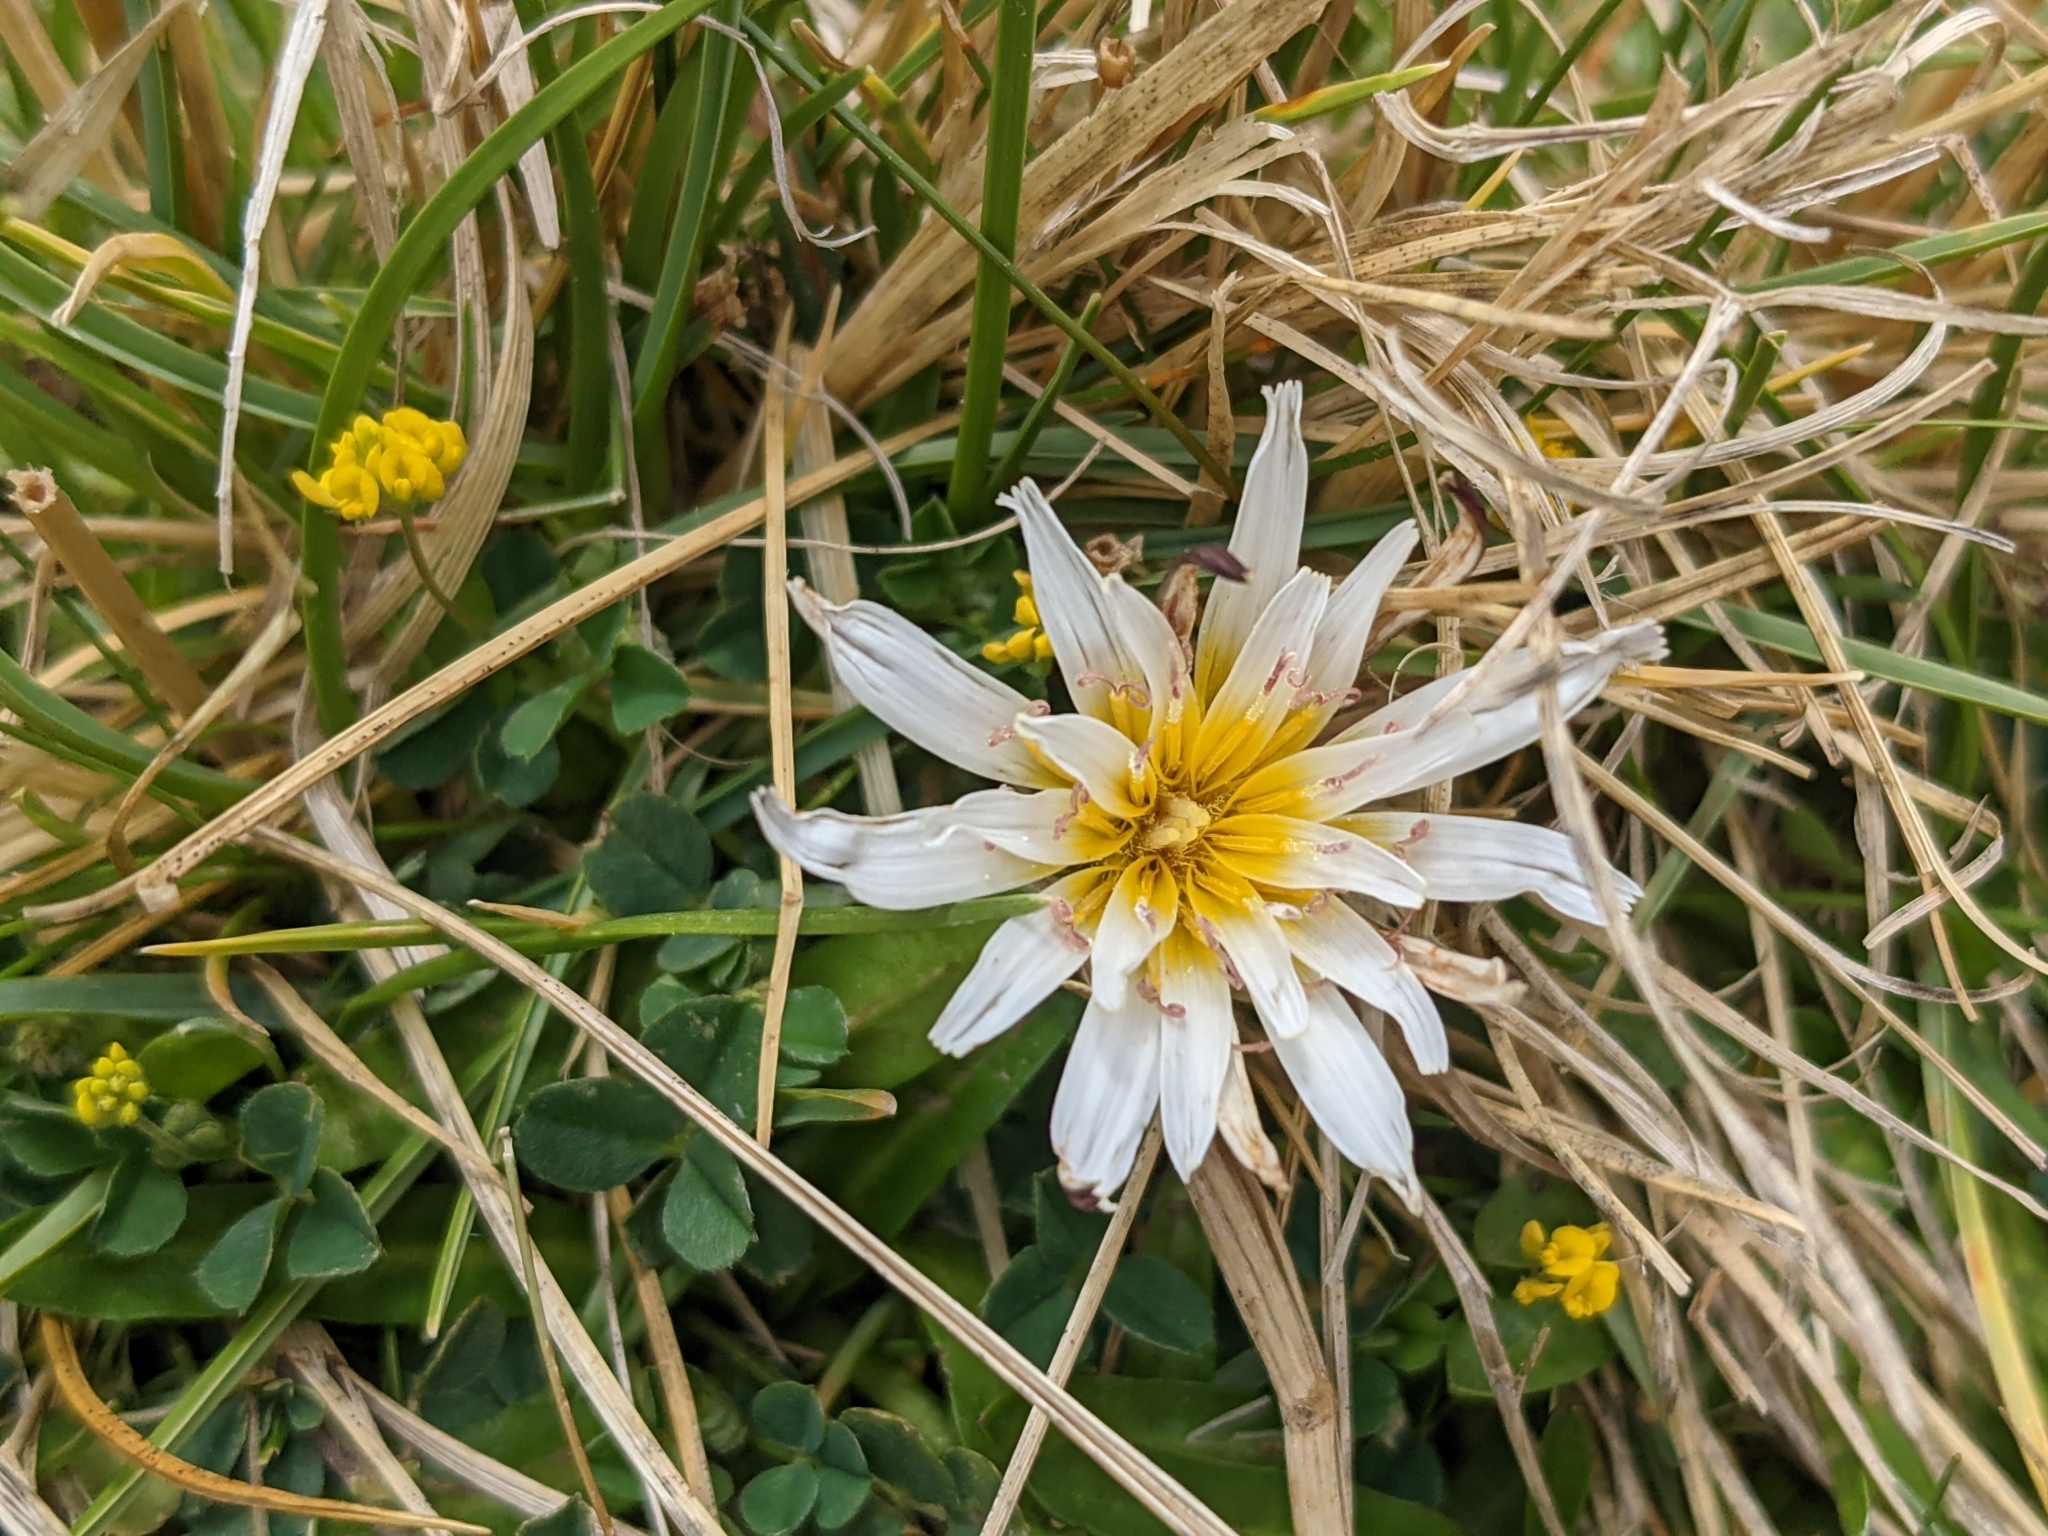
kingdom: Plantae
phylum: Tracheophyta
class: Magnoliopsida
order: Asterales
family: Asteraceae
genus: Hypochaeris
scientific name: Hypochaeris taraxacoides
